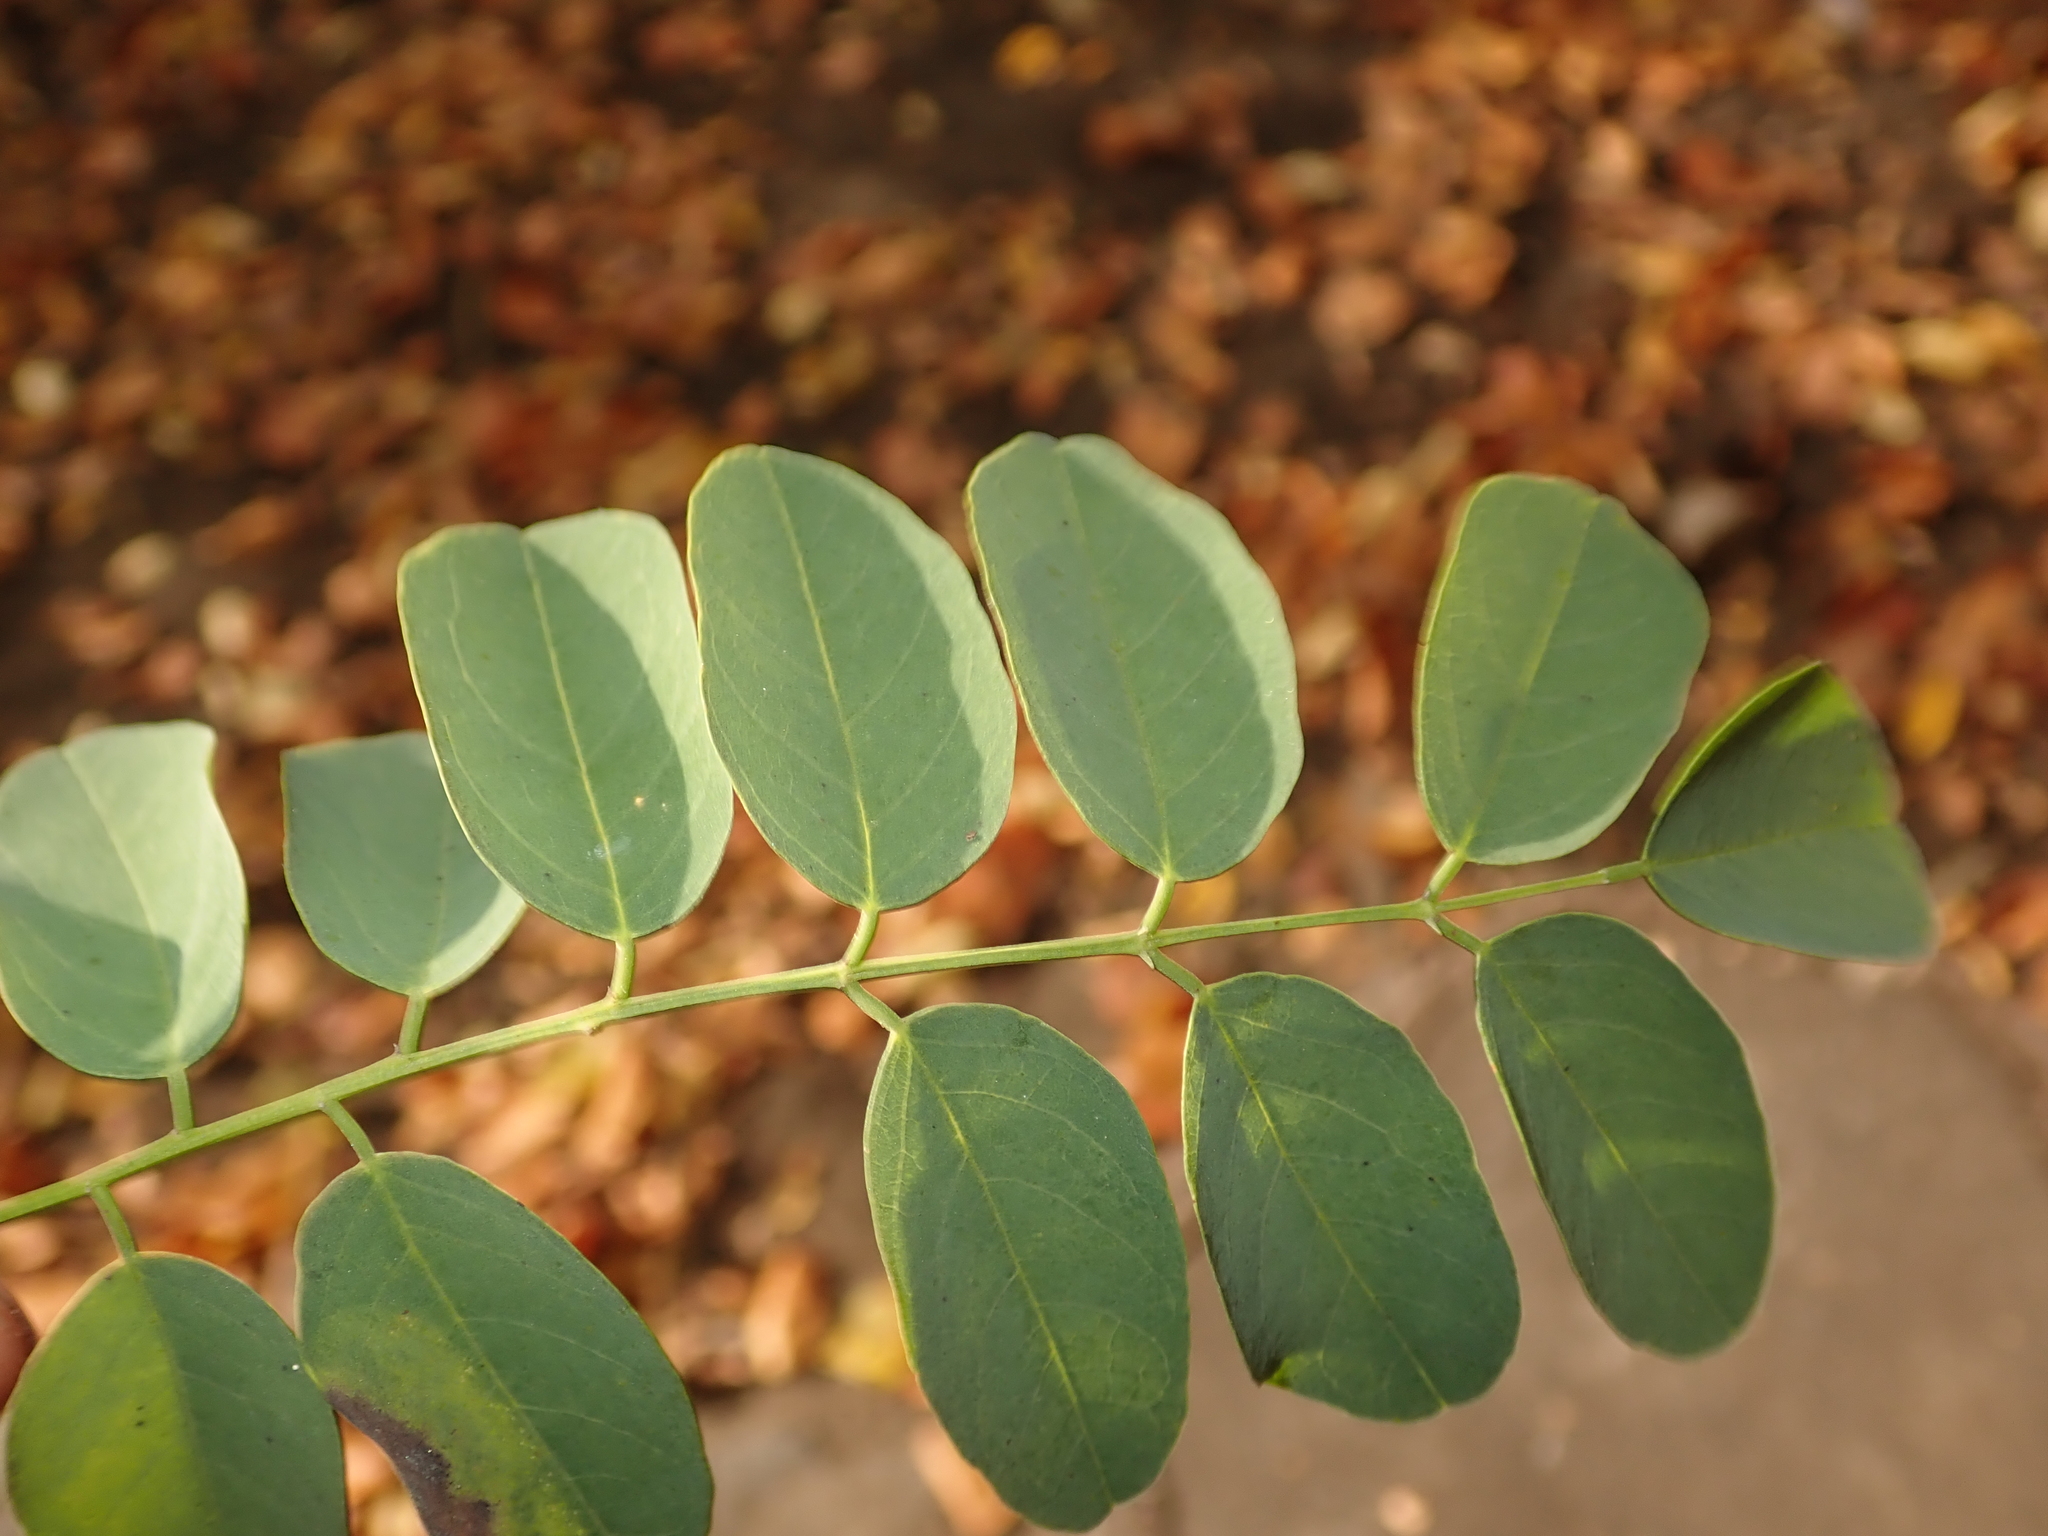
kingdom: Plantae
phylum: Tracheophyta
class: Magnoliopsida
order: Fabales
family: Fabaceae
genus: Robinia
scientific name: Robinia pseudoacacia
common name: Black locust
